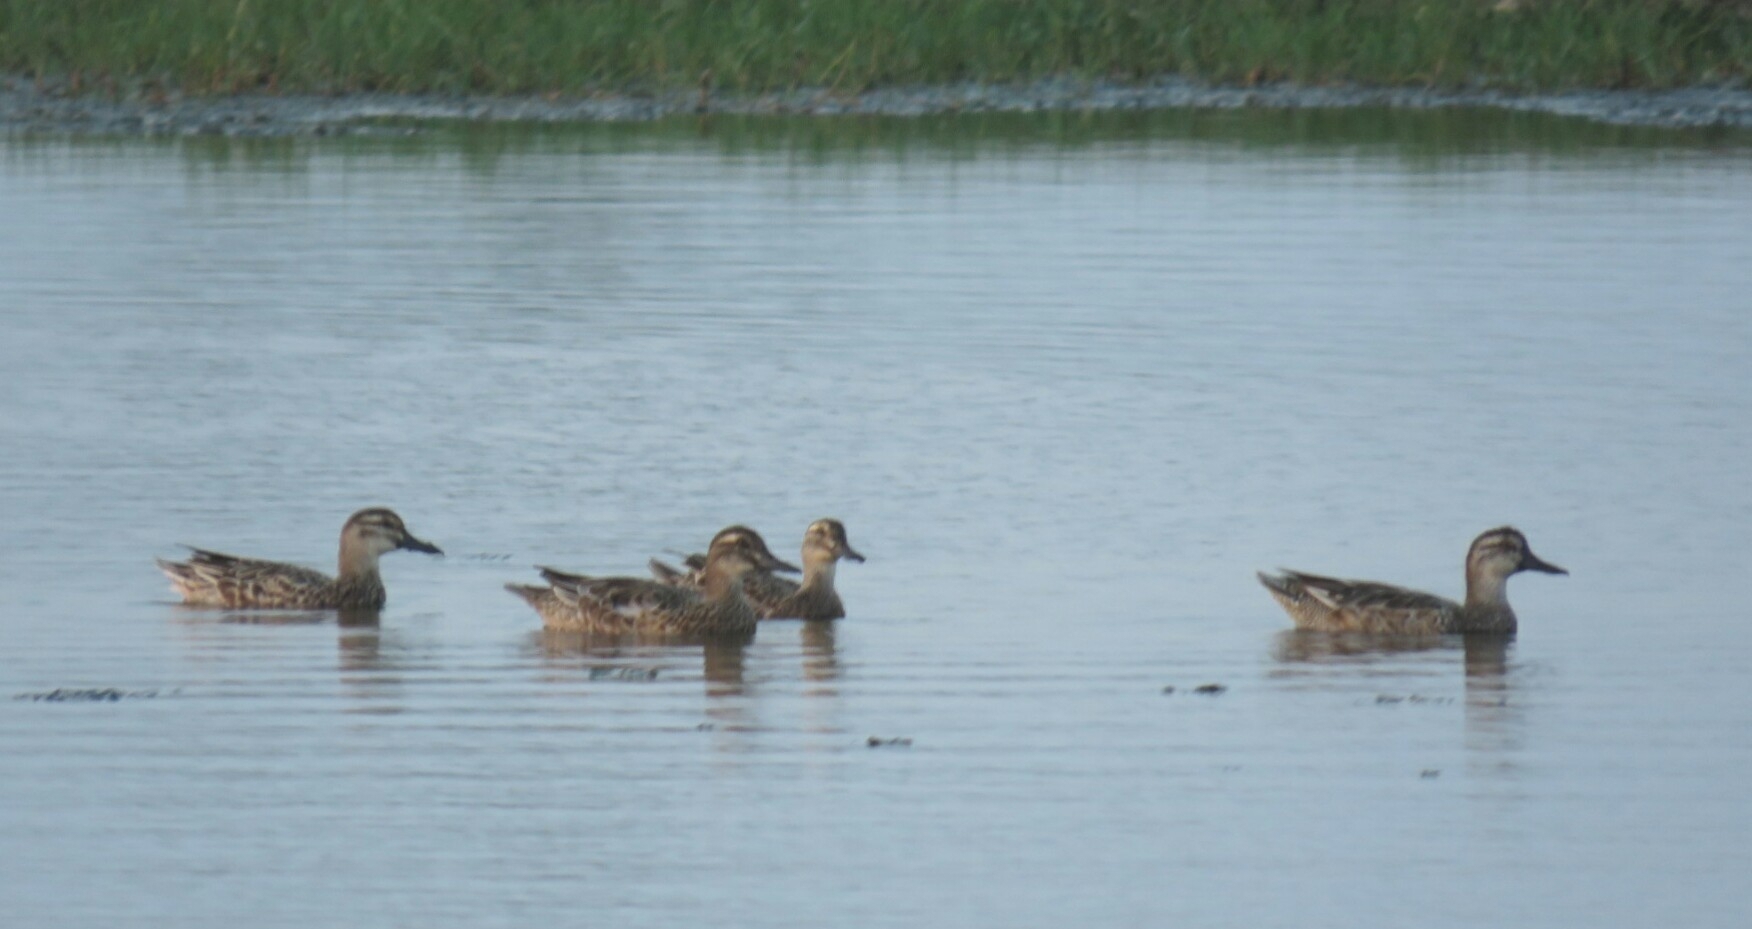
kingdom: Animalia
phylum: Chordata
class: Aves
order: Anseriformes
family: Anatidae
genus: Spatula
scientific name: Spatula querquedula
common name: Garganey
